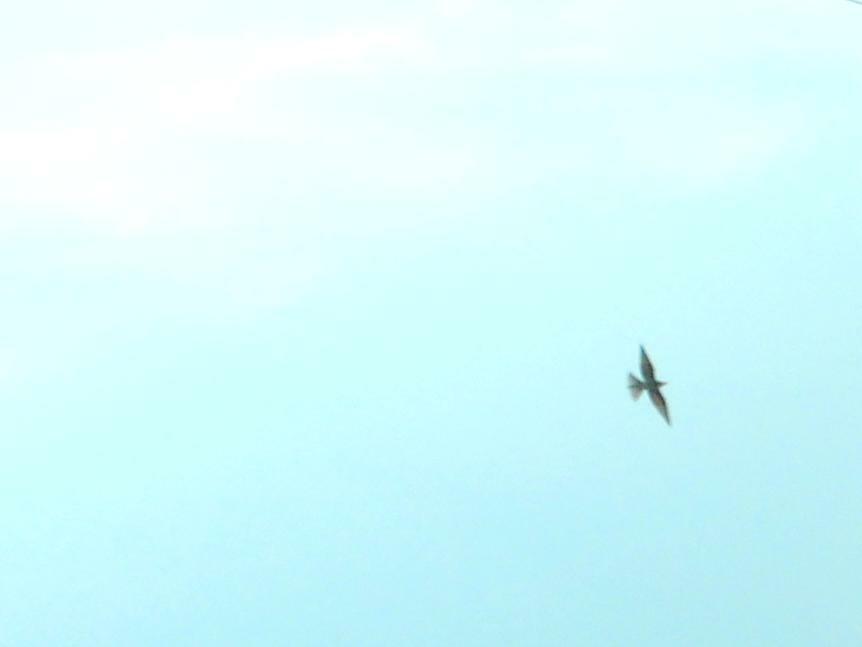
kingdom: Animalia
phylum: Chordata
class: Aves
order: Coraciiformes
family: Meropidae
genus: Merops
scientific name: Merops apiaster
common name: European bee-eater
